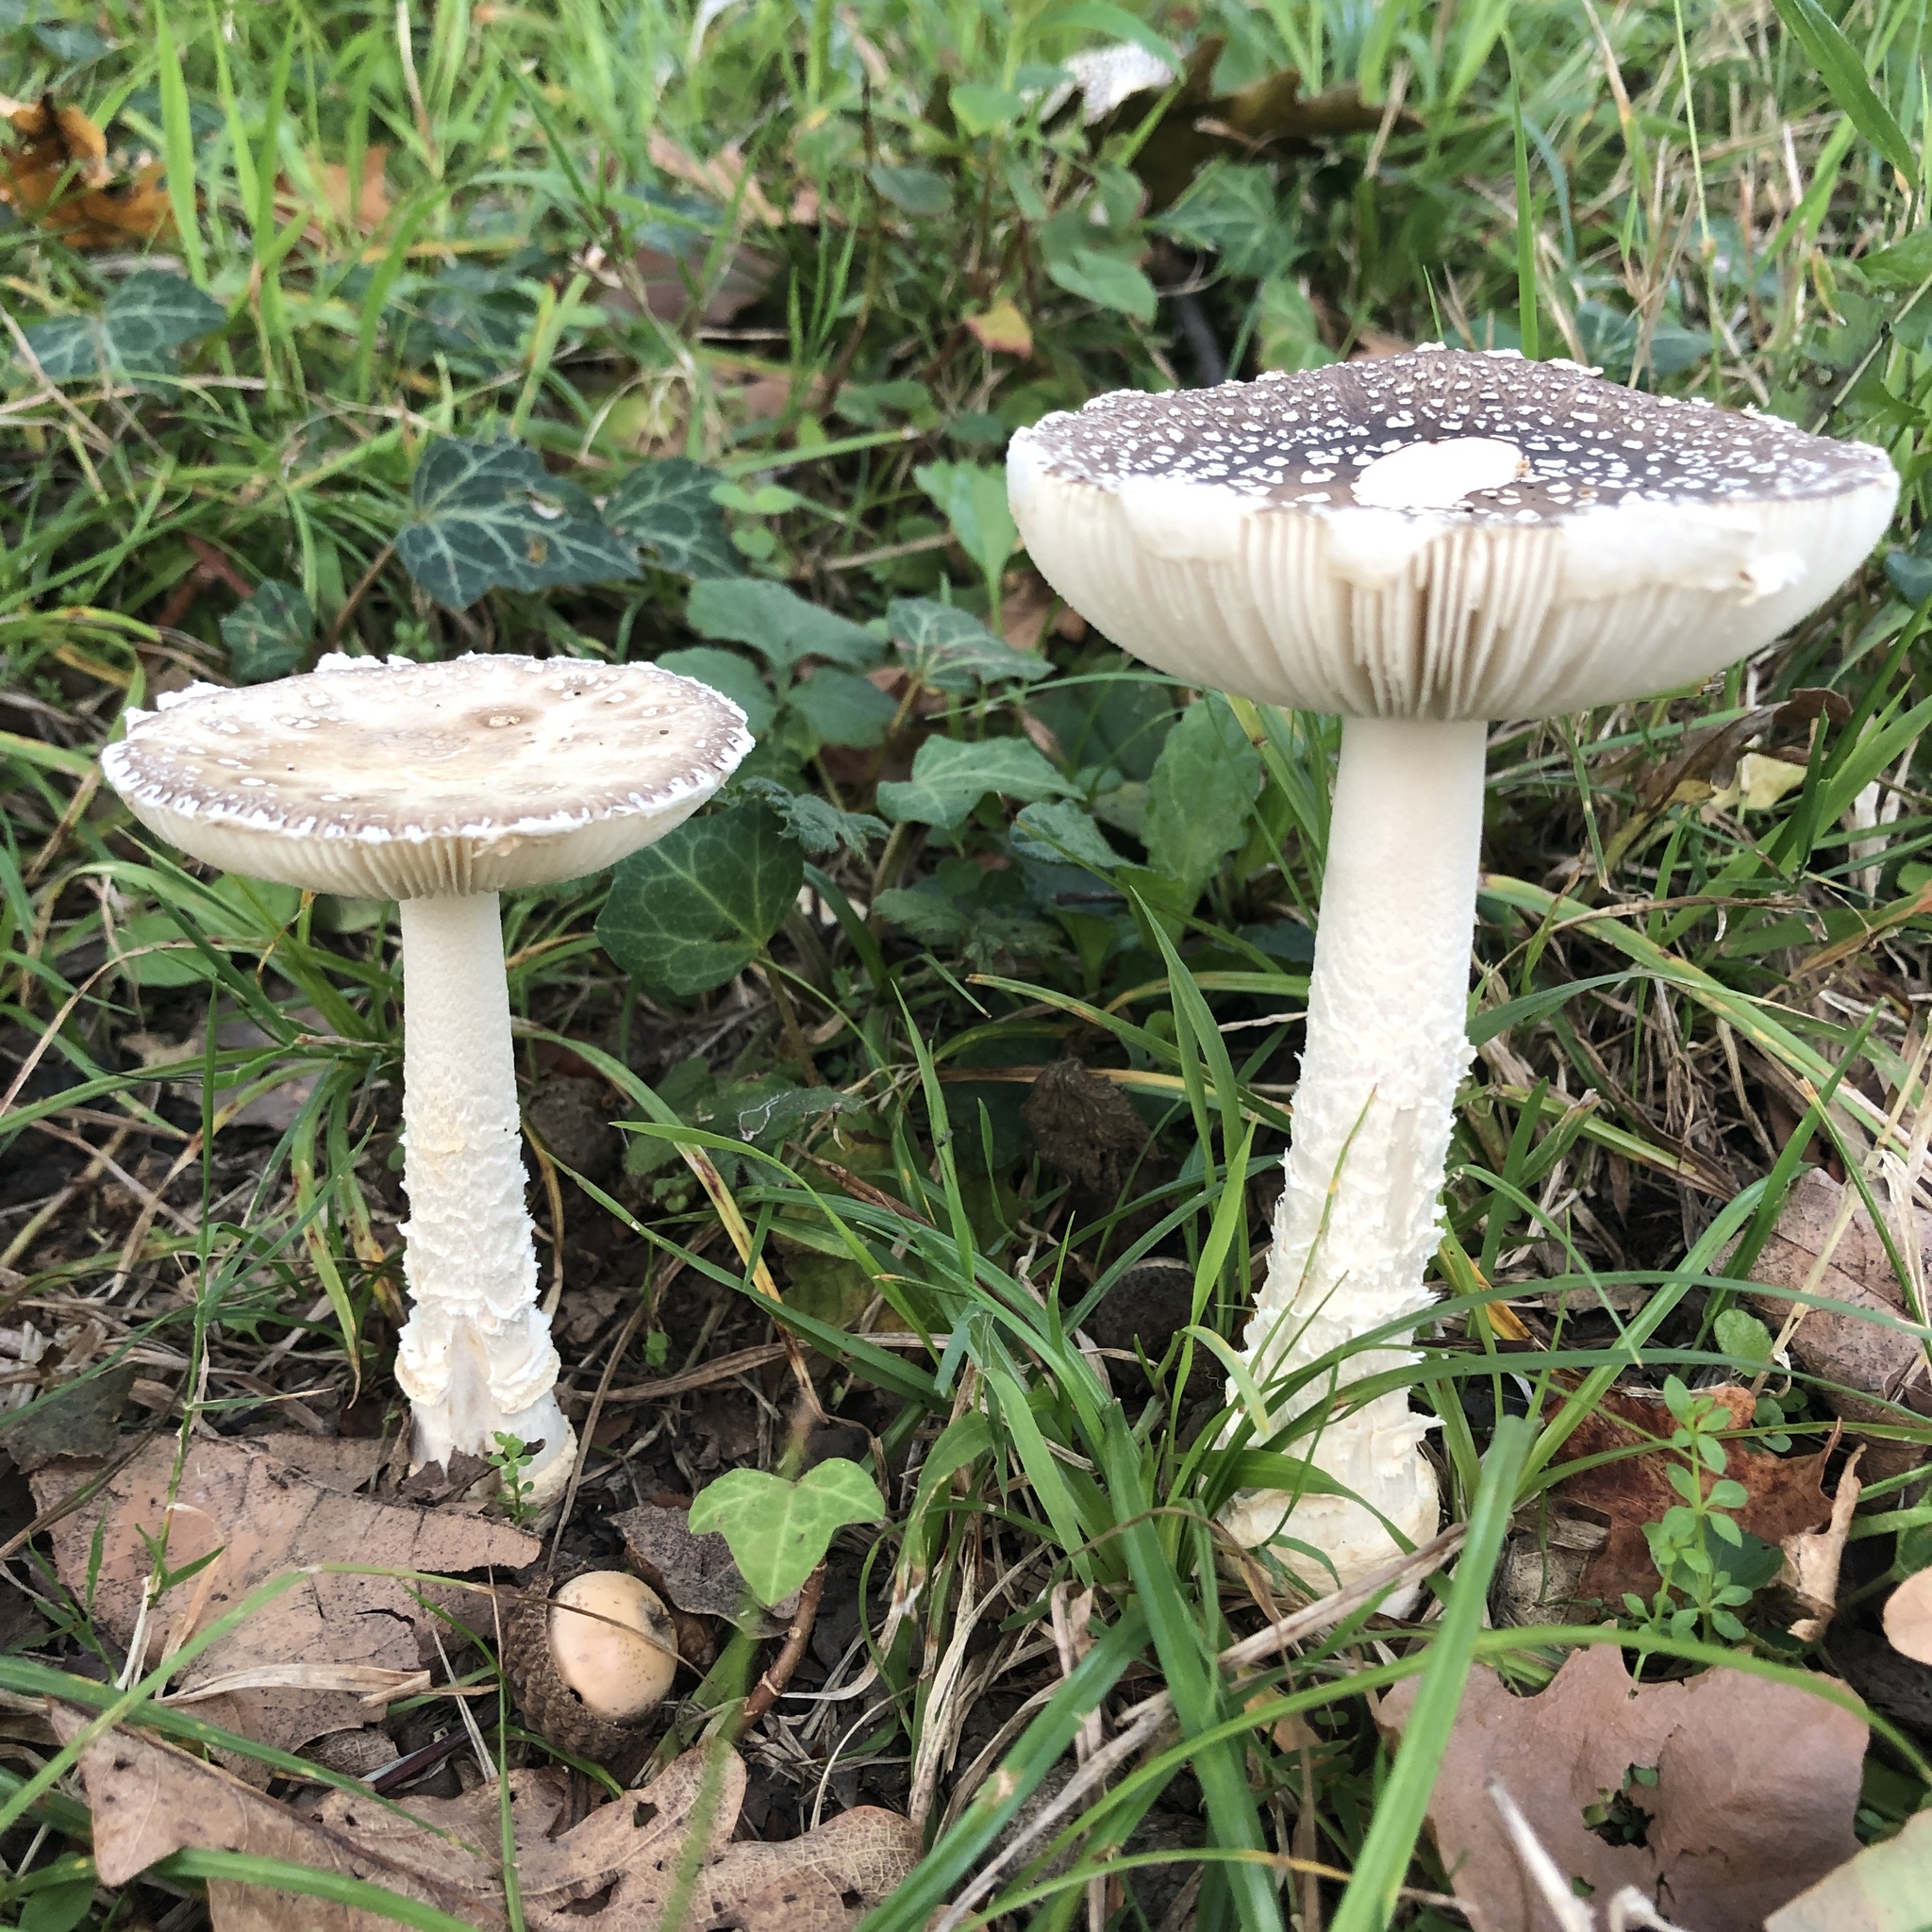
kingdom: Fungi
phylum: Basidiomycota
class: Agaricomycetes
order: Agaricales
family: Amanitaceae
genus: Amanita
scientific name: Amanita pantherina
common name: Panthercap
